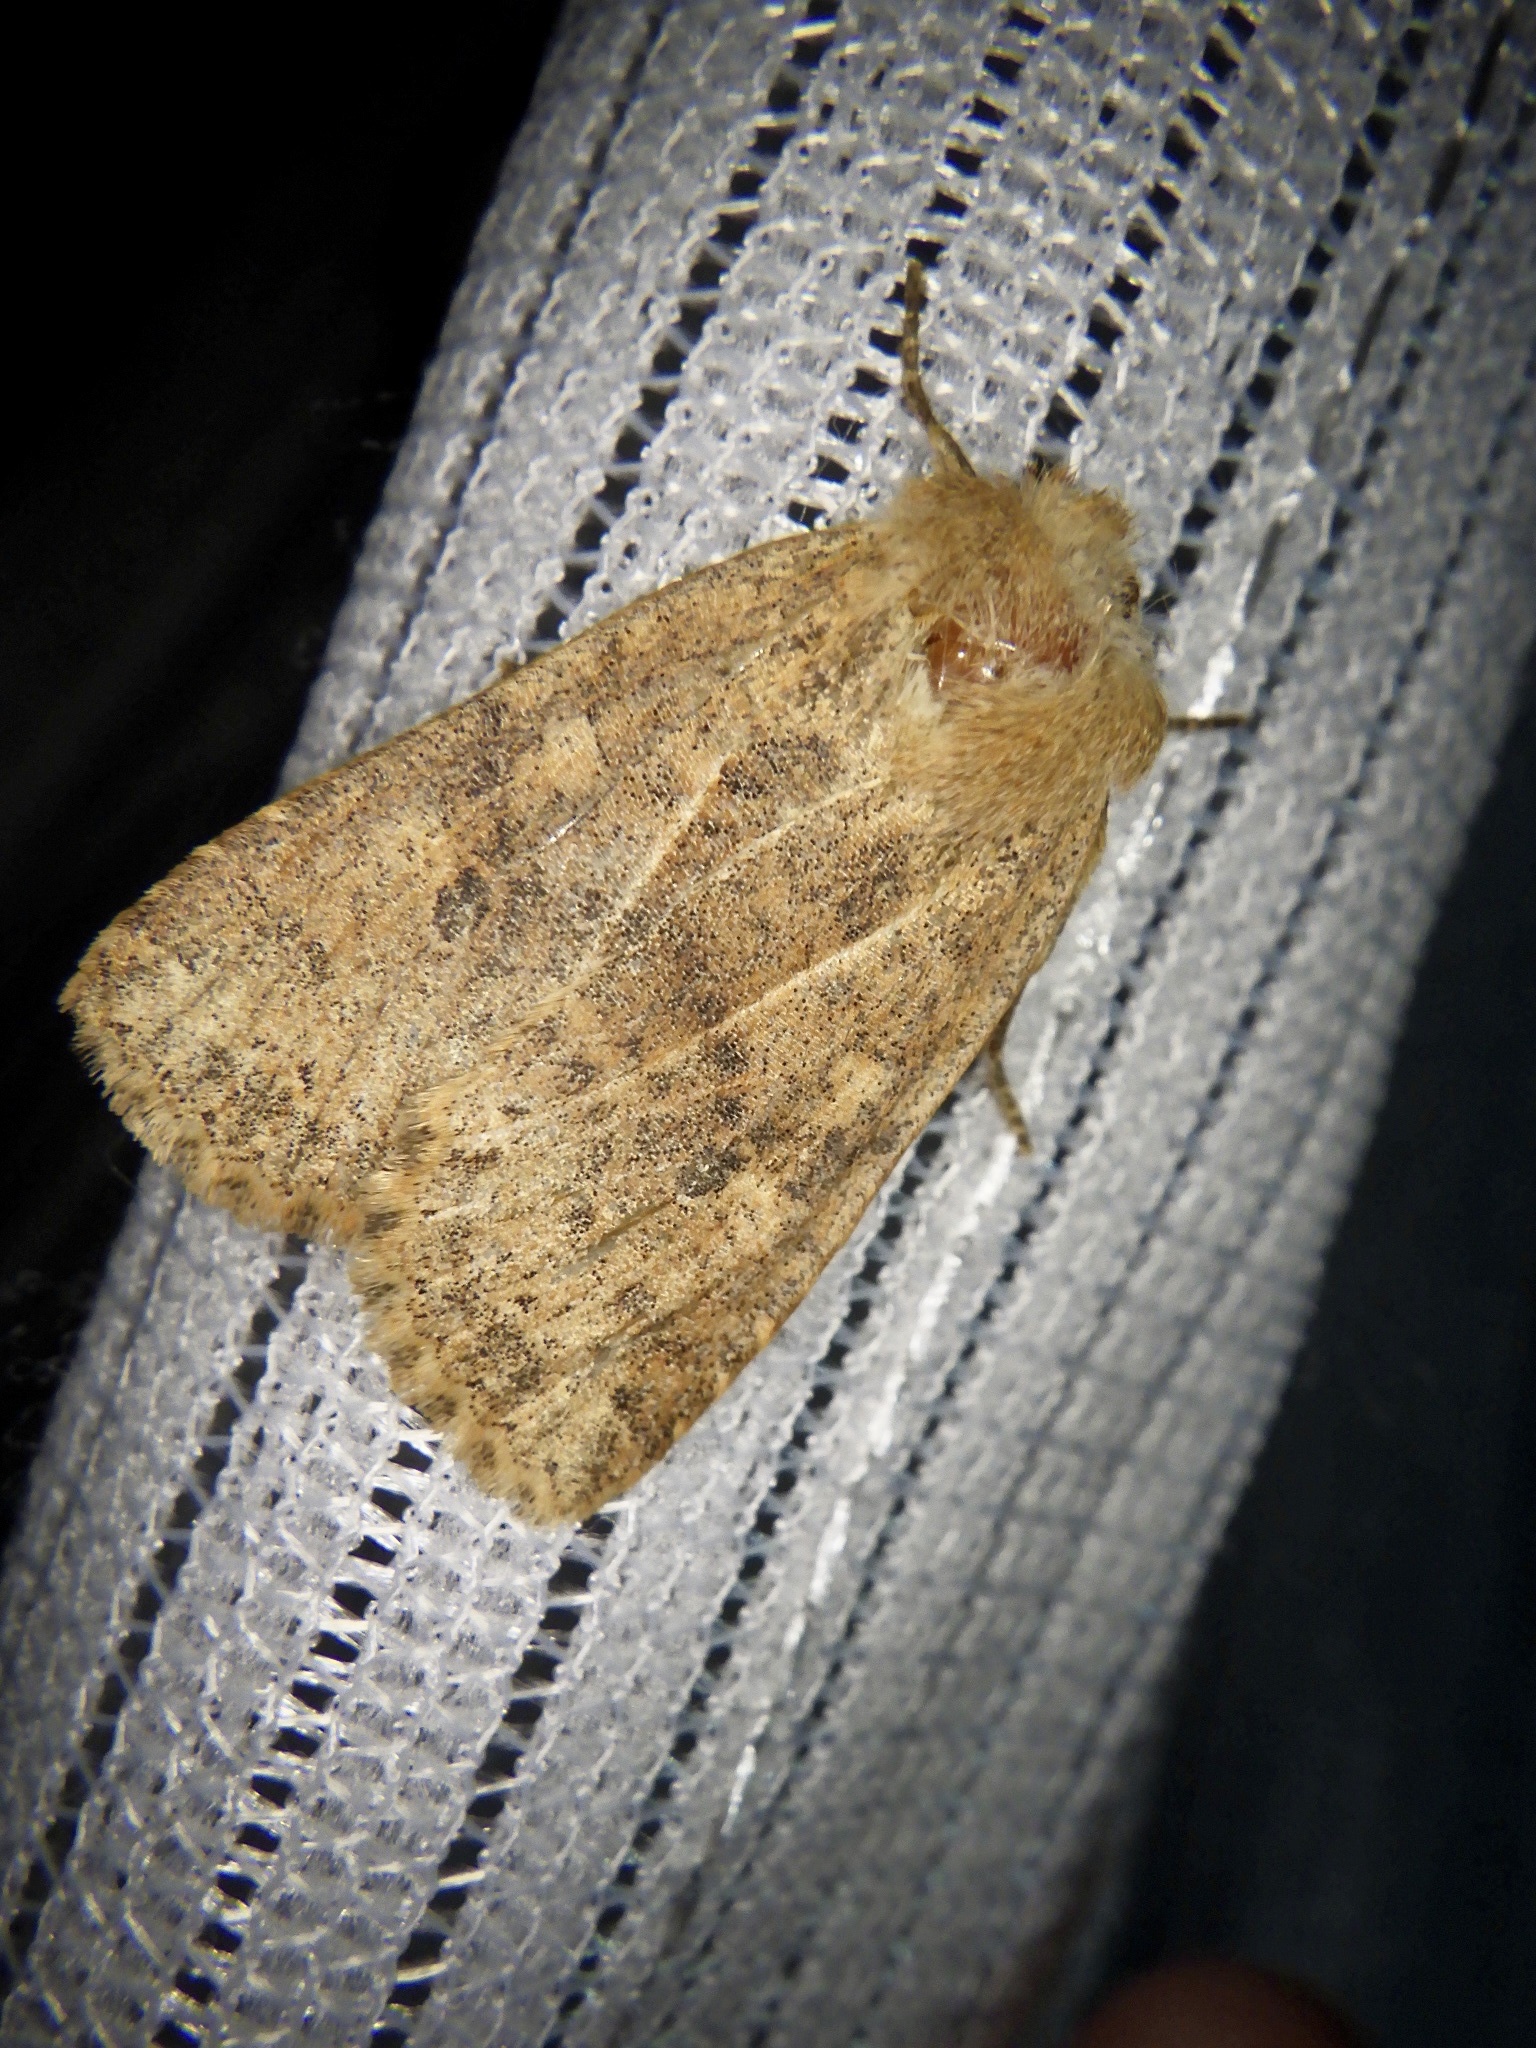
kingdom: Animalia
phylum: Arthropoda
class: Insecta
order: Lepidoptera
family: Noctuidae
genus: Conistra
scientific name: Conistra albipuncta
